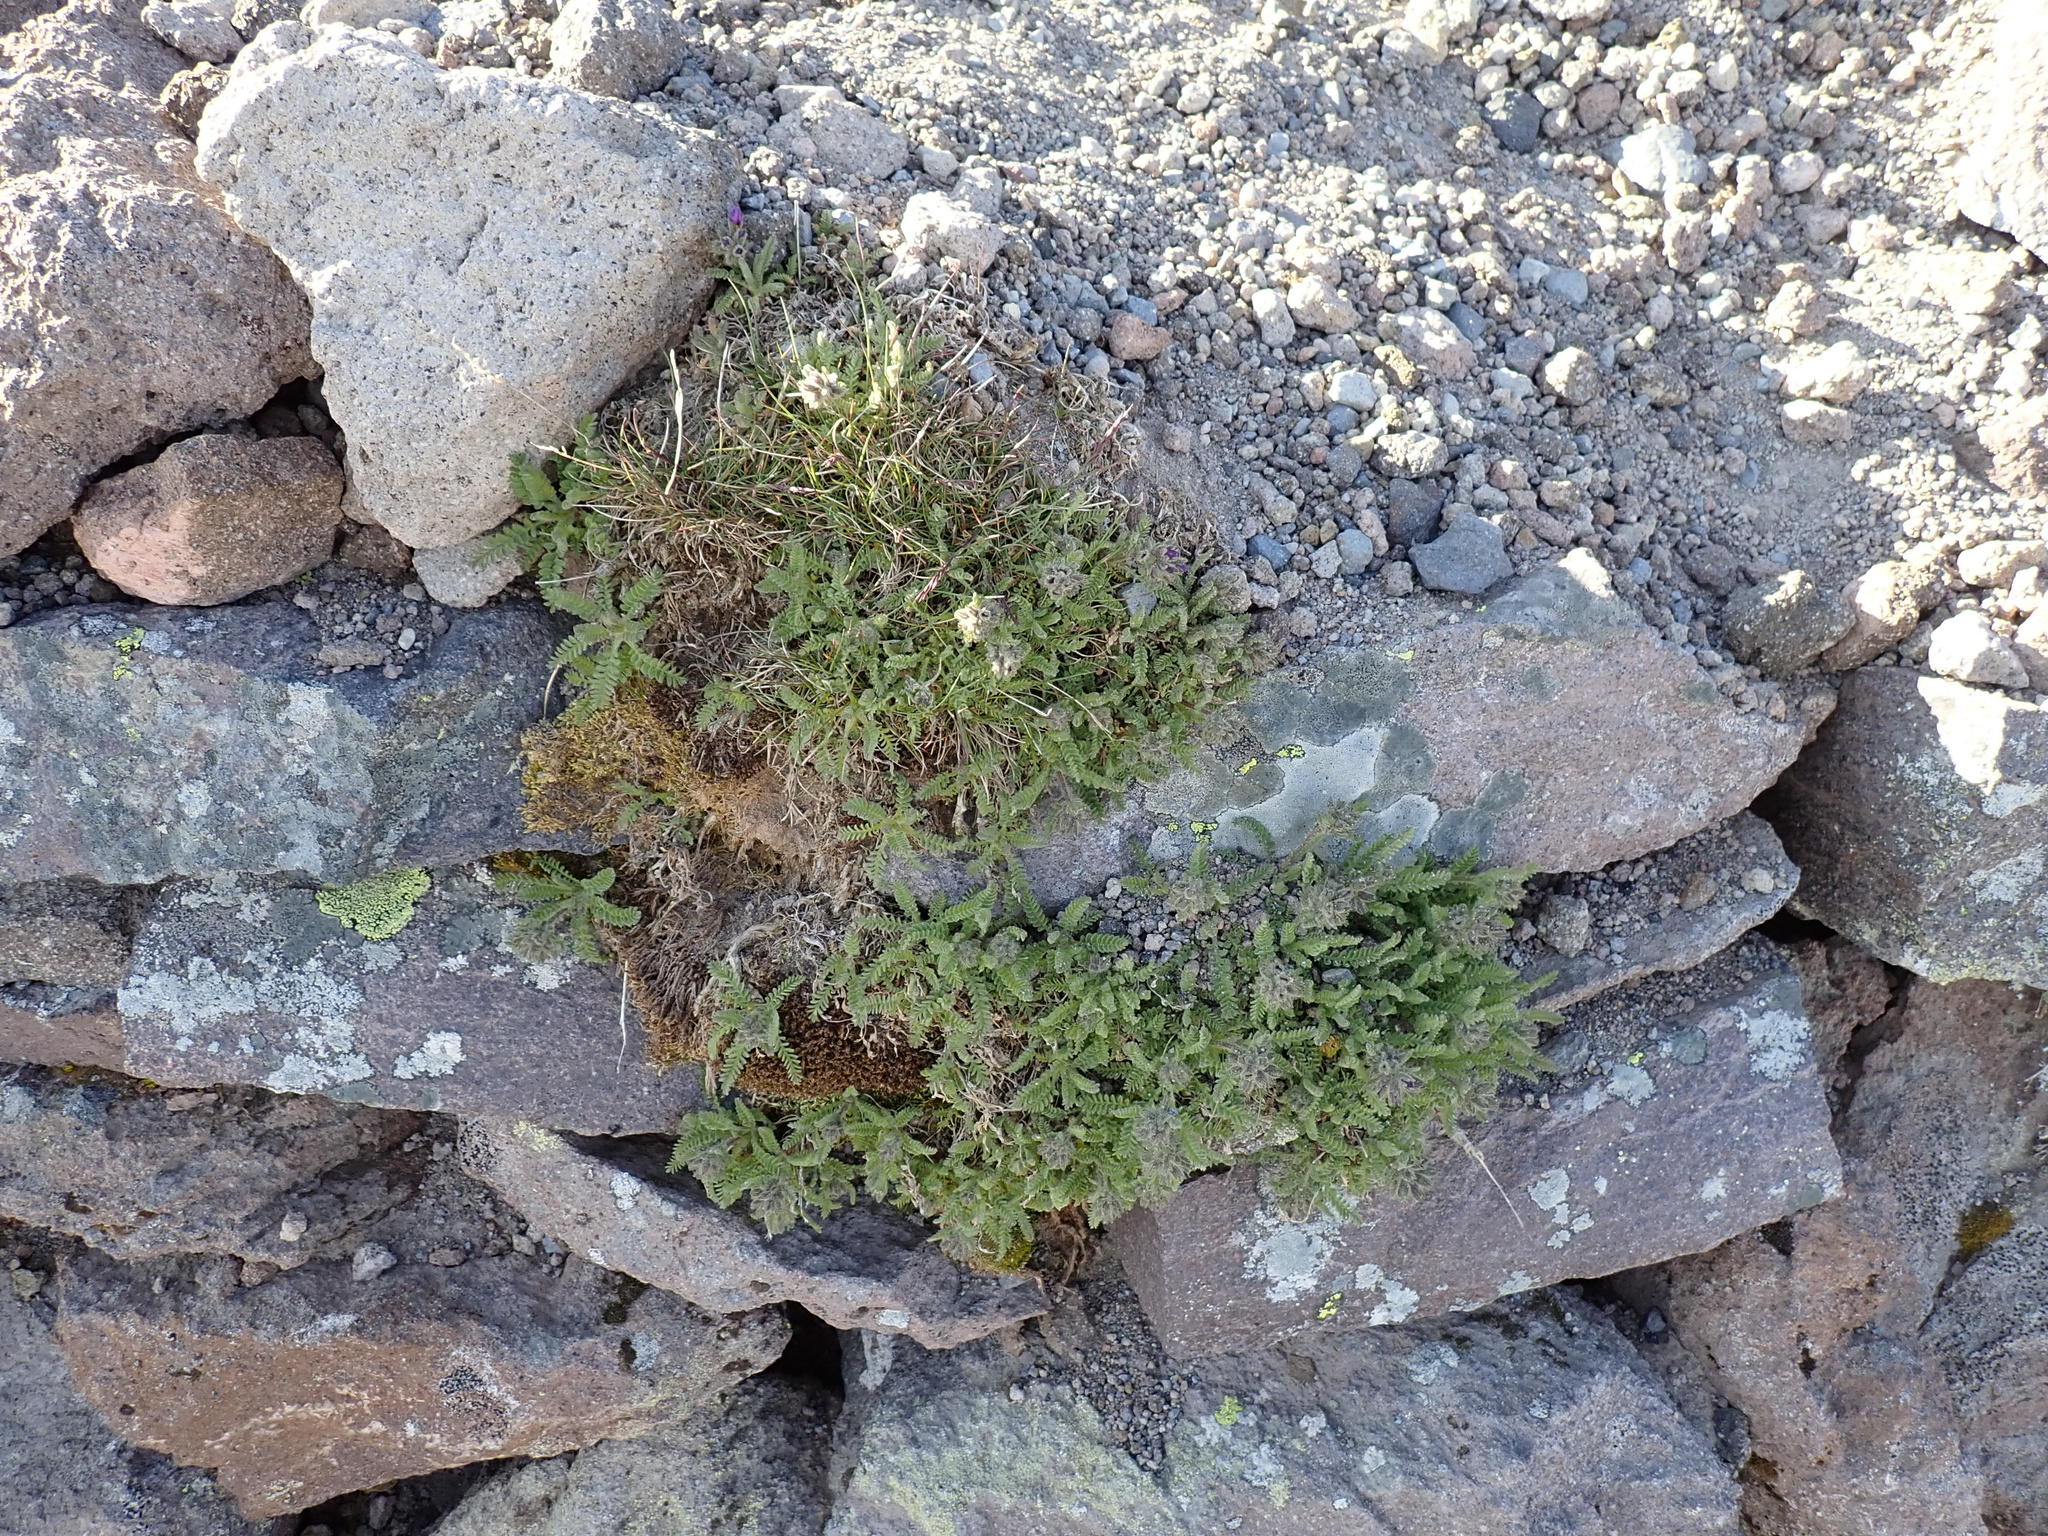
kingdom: Plantae
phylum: Tracheophyta
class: Magnoliopsida
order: Ericales
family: Polemoniaceae
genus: Polemonium
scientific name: Polemonium elegans
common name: Elegant jacob's-ladder
